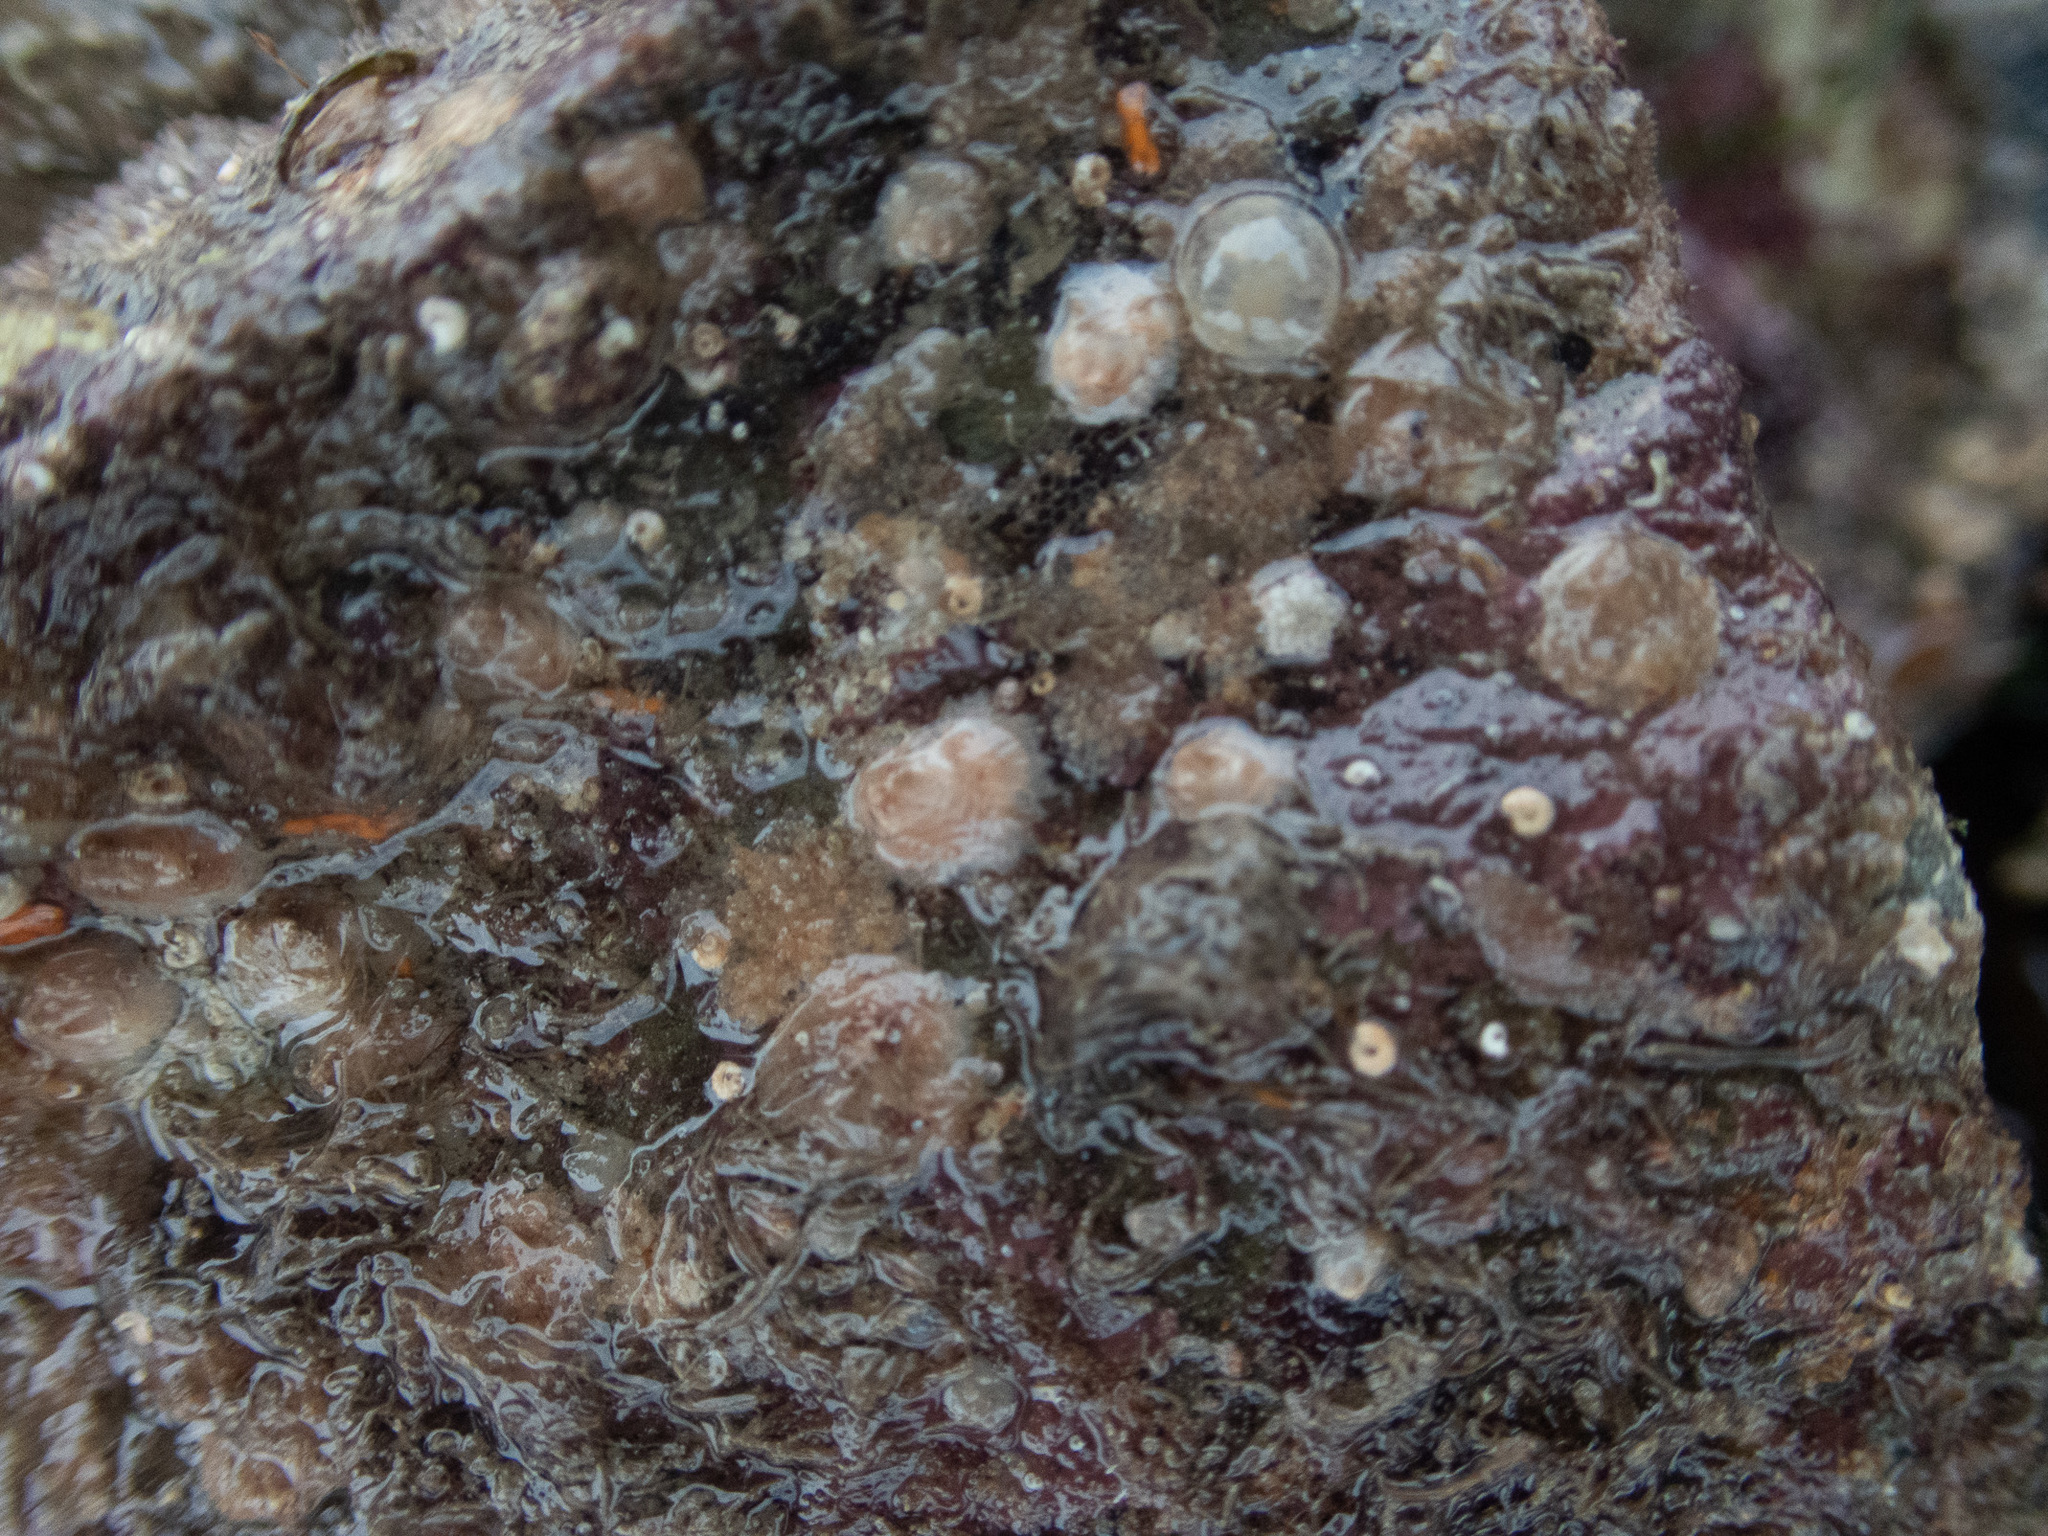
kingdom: Animalia
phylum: Arthropoda
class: Maxillopoda
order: Sessilia
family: Verrucidae
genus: Verruca
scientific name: Verruca stroemia
